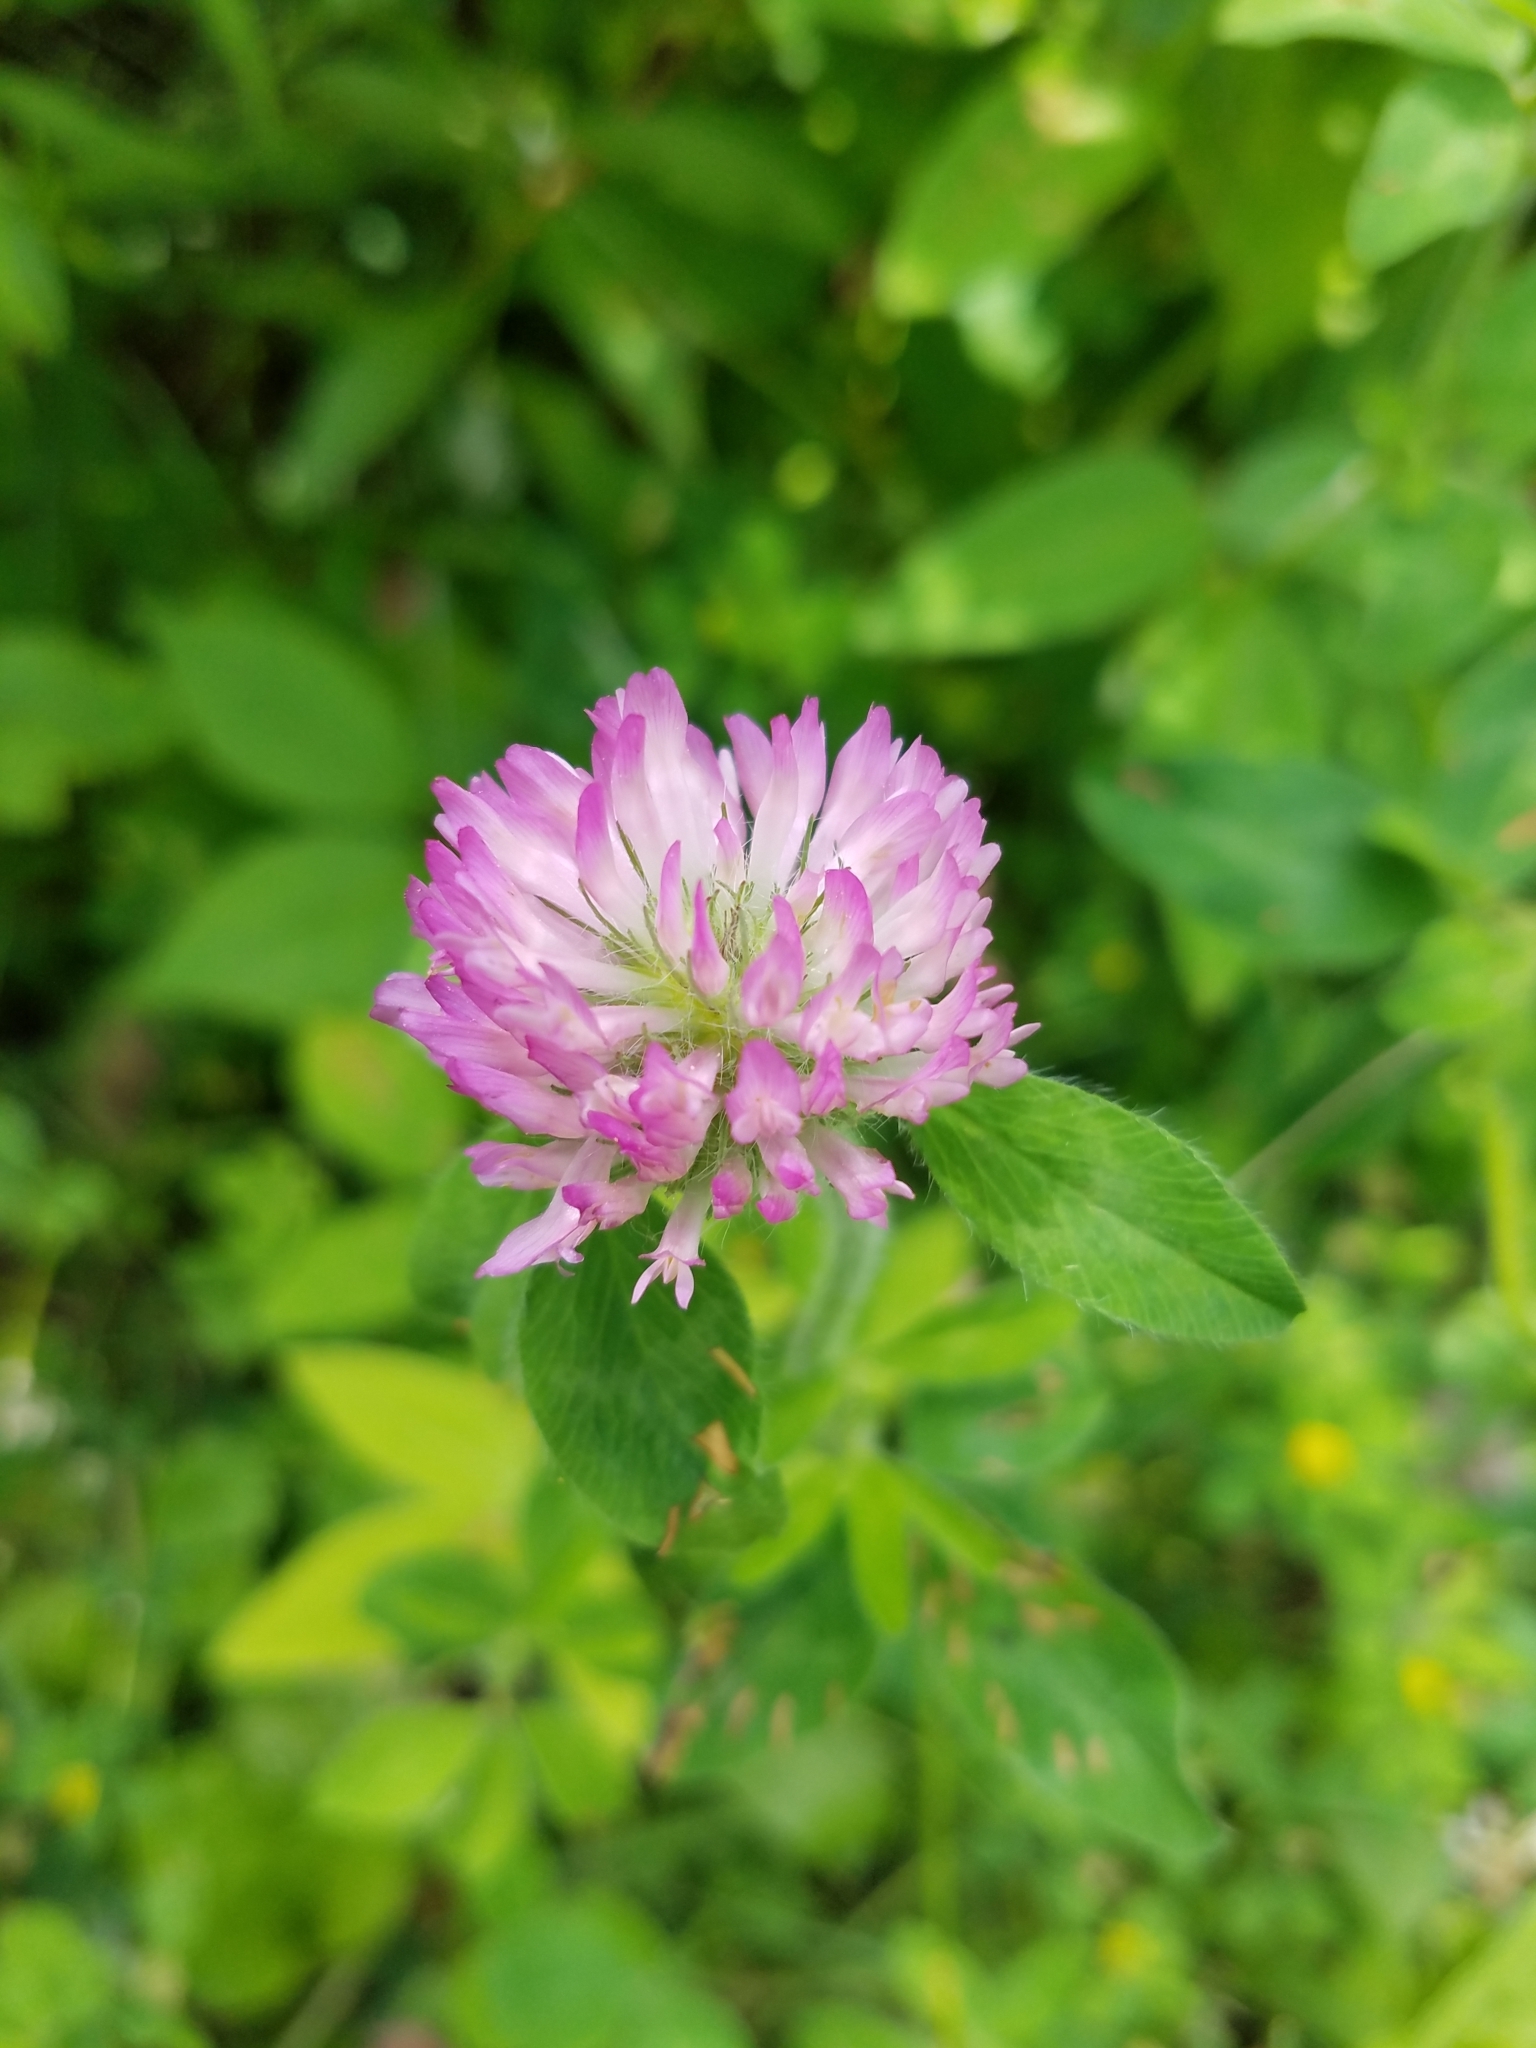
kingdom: Plantae
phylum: Tracheophyta
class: Magnoliopsida
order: Fabales
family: Fabaceae
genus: Trifolium
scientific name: Trifolium pratense
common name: Red clover
